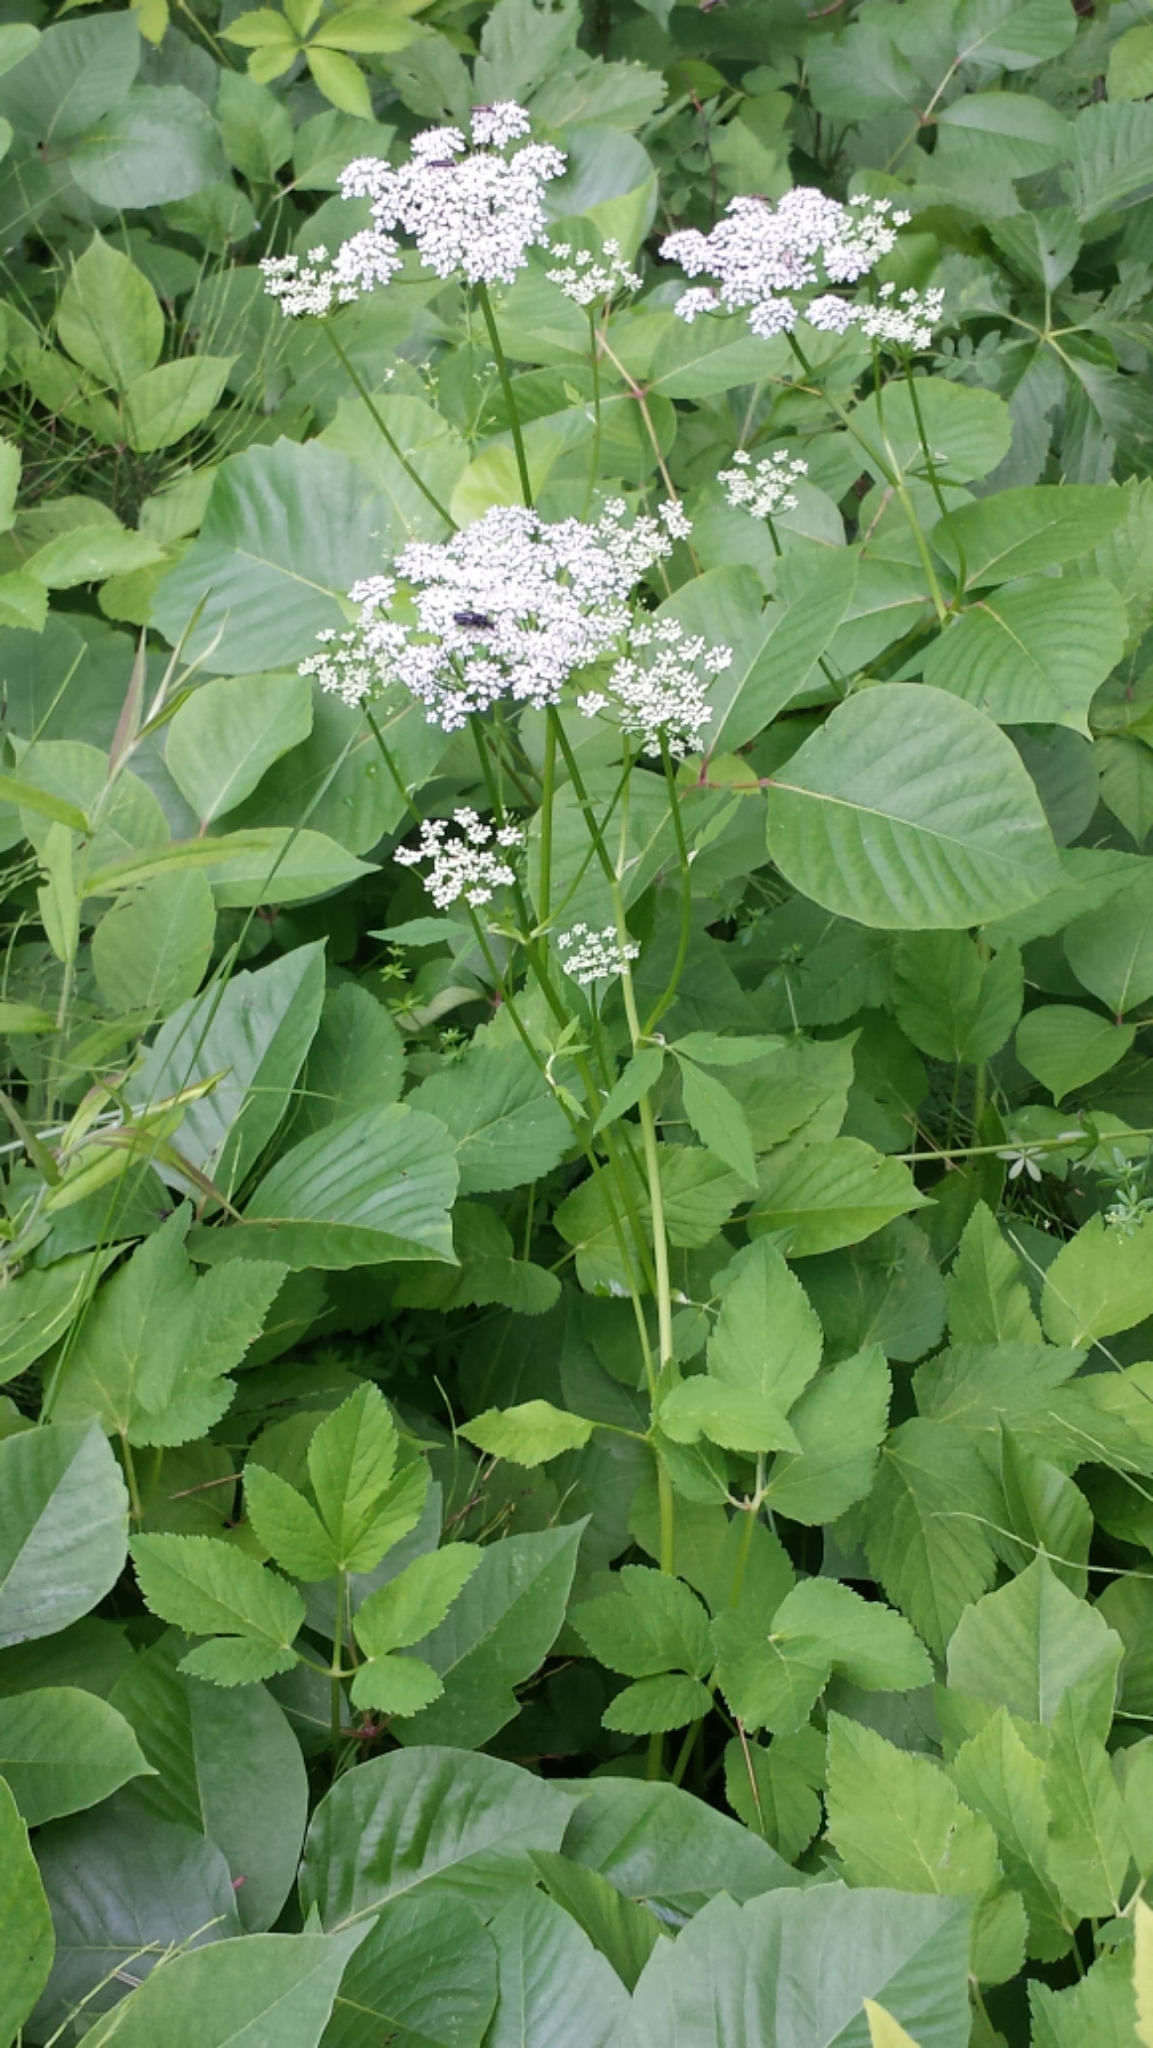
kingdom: Plantae
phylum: Tracheophyta
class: Magnoliopsida
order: Apiales
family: Apiaceae
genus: Aegopodium
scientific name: Aegopodium podagraria
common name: Ground-elder
